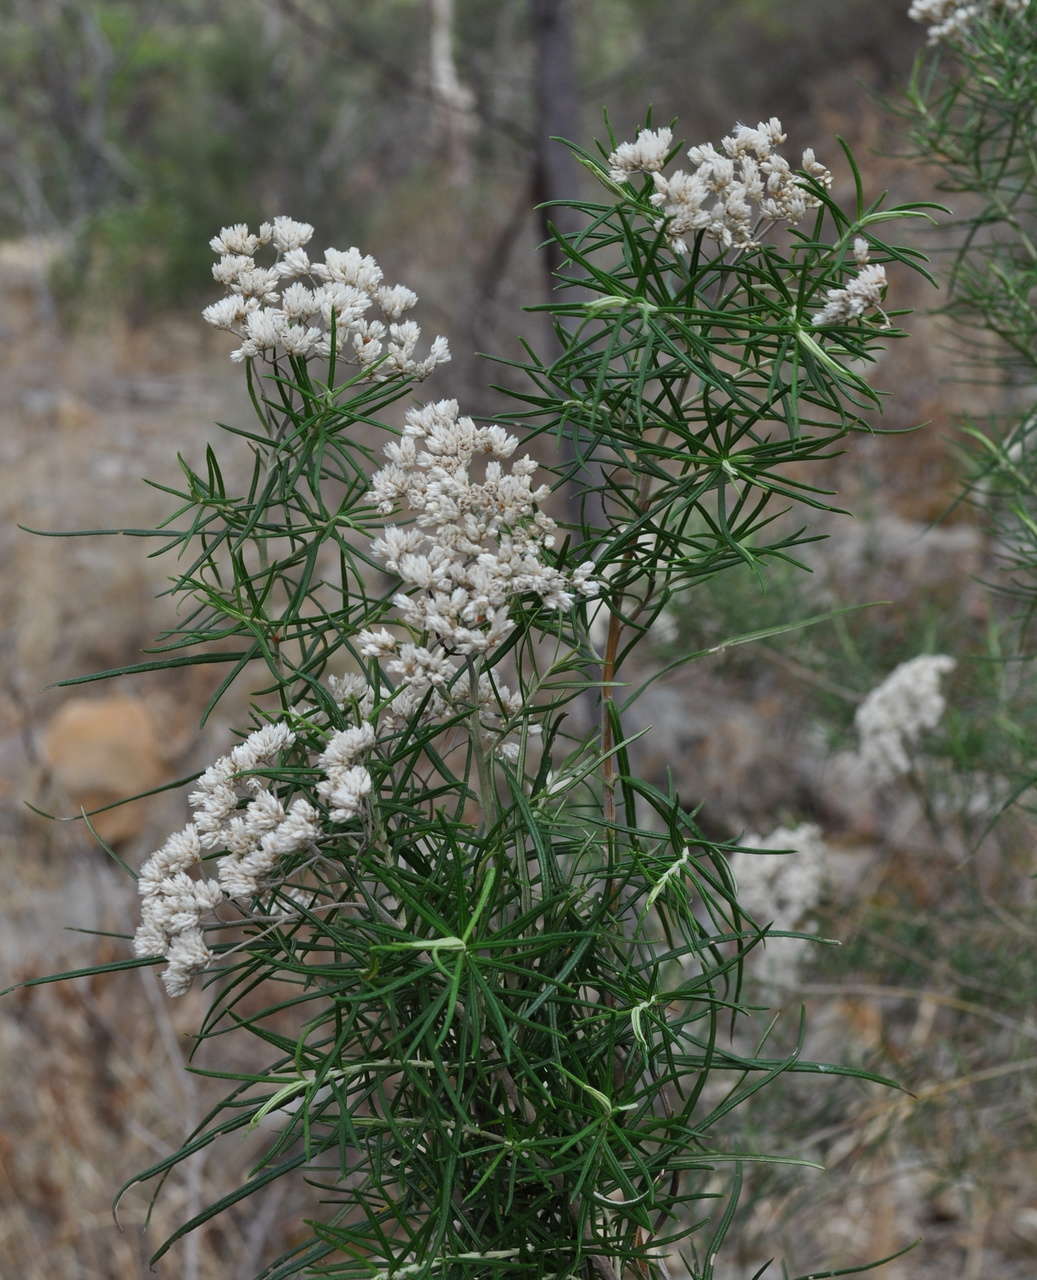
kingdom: Plantae
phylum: Tracheophyta
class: Magnoliopsida
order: Asterales
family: Asteraceae
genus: Cassinia
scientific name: Cassinia longifolia
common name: Longleaf-dogwood
